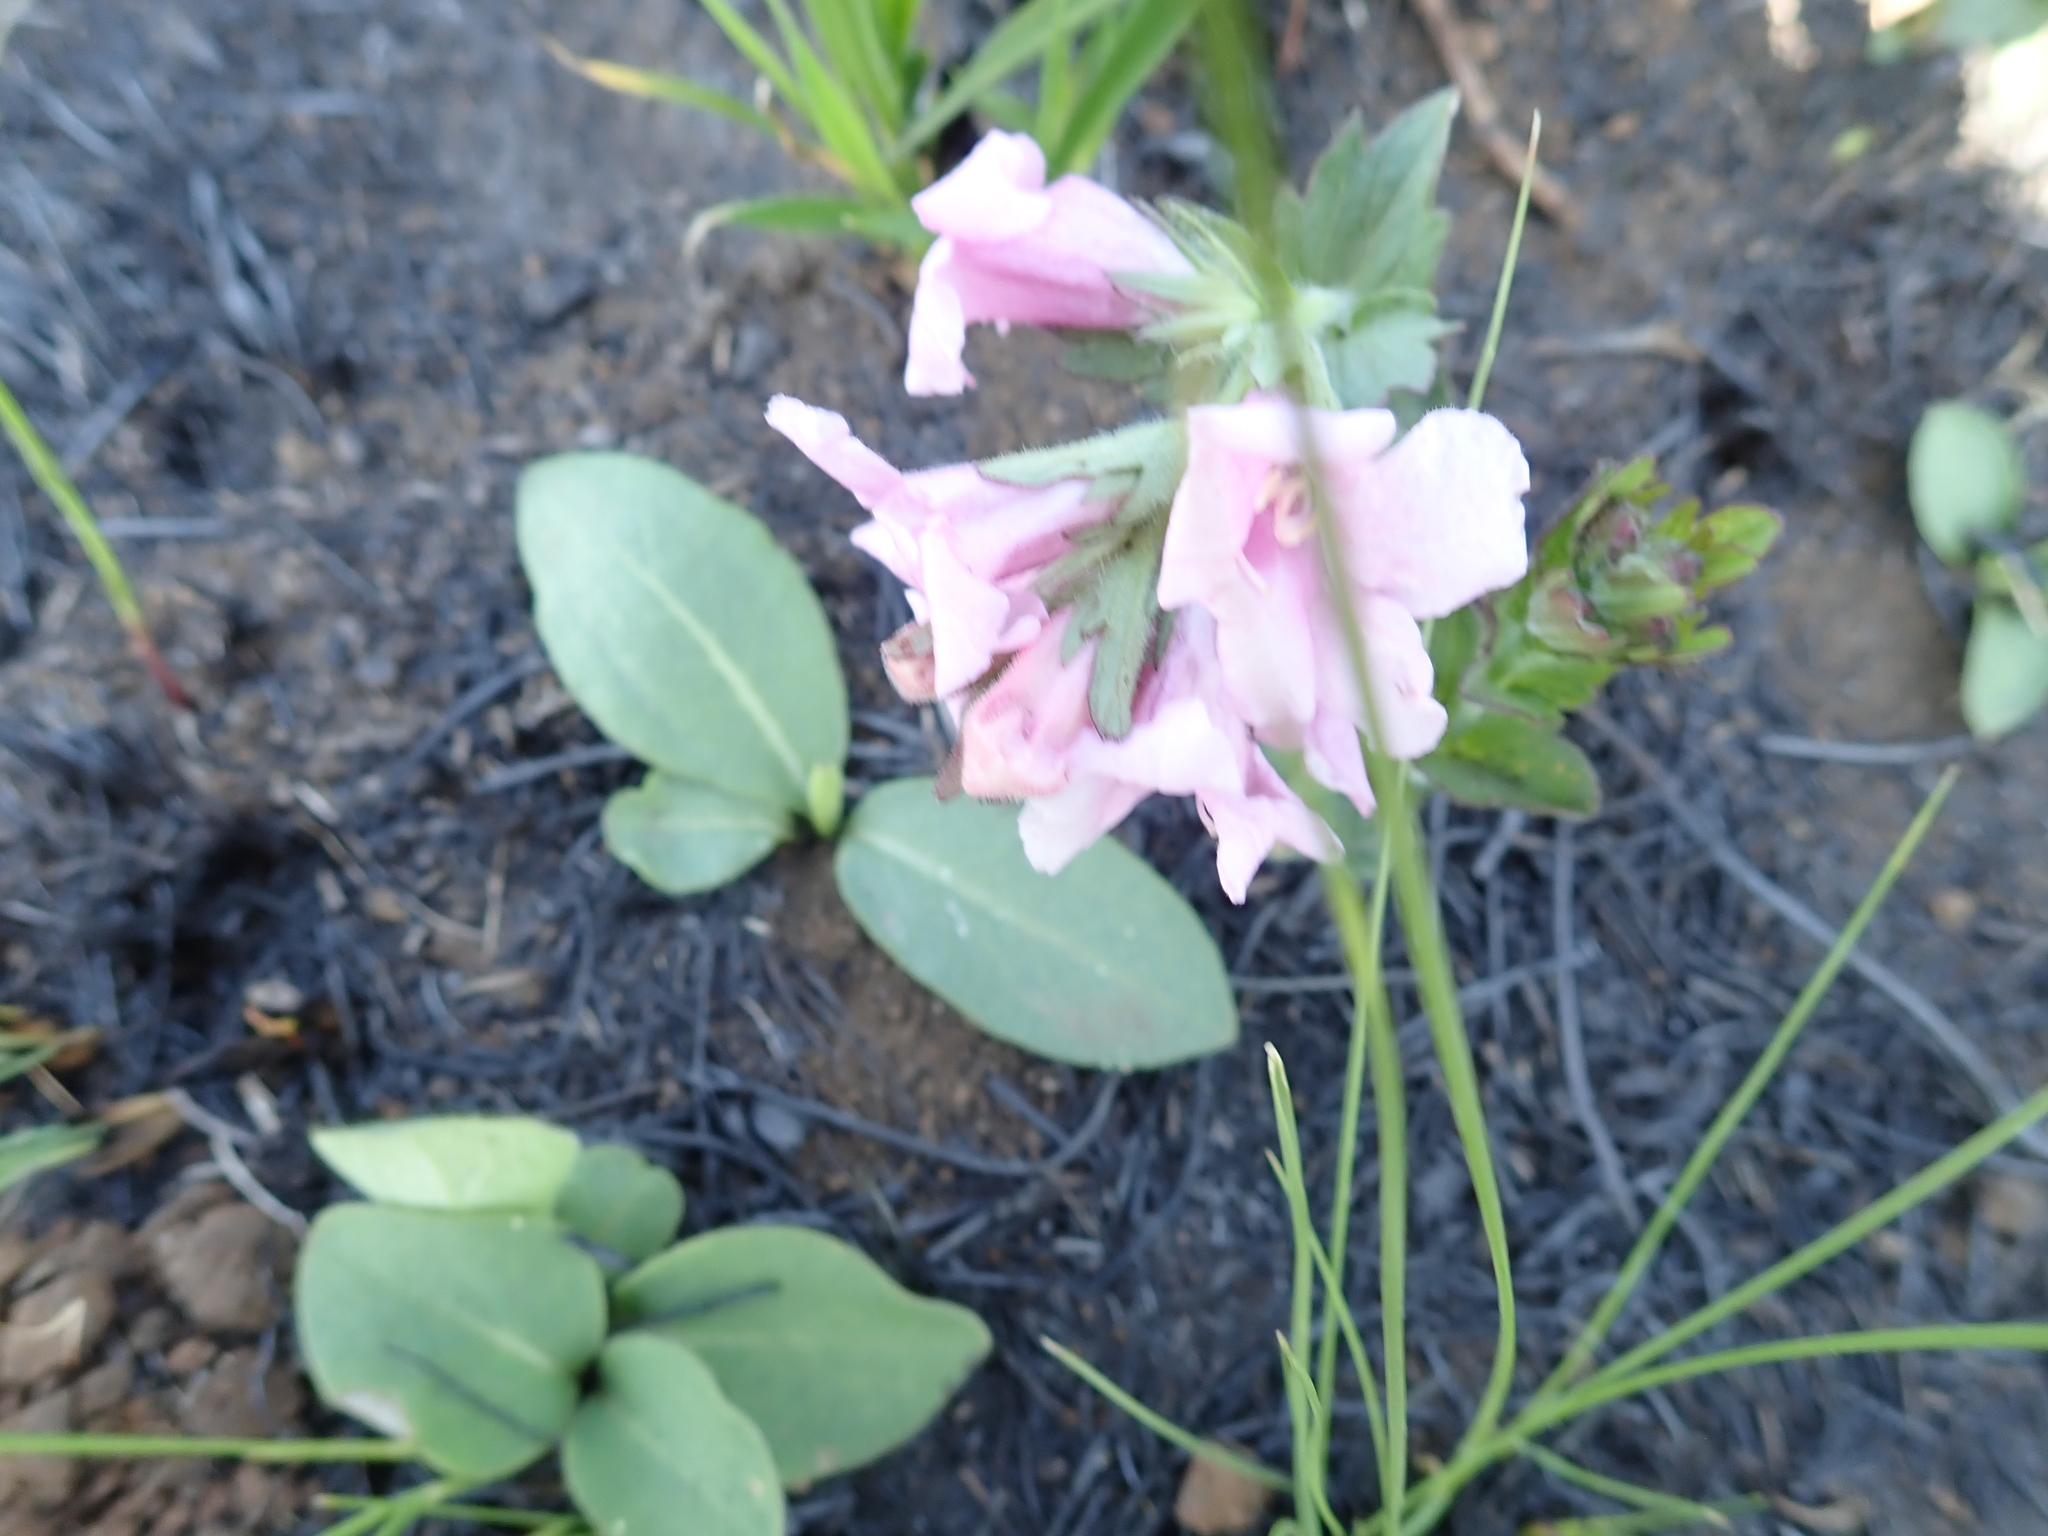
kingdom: Plantae
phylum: Tracheophyta
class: Magnoliopsida
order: Lamiales
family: Orobanchaceae
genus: Graderia
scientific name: Graderia scabra
